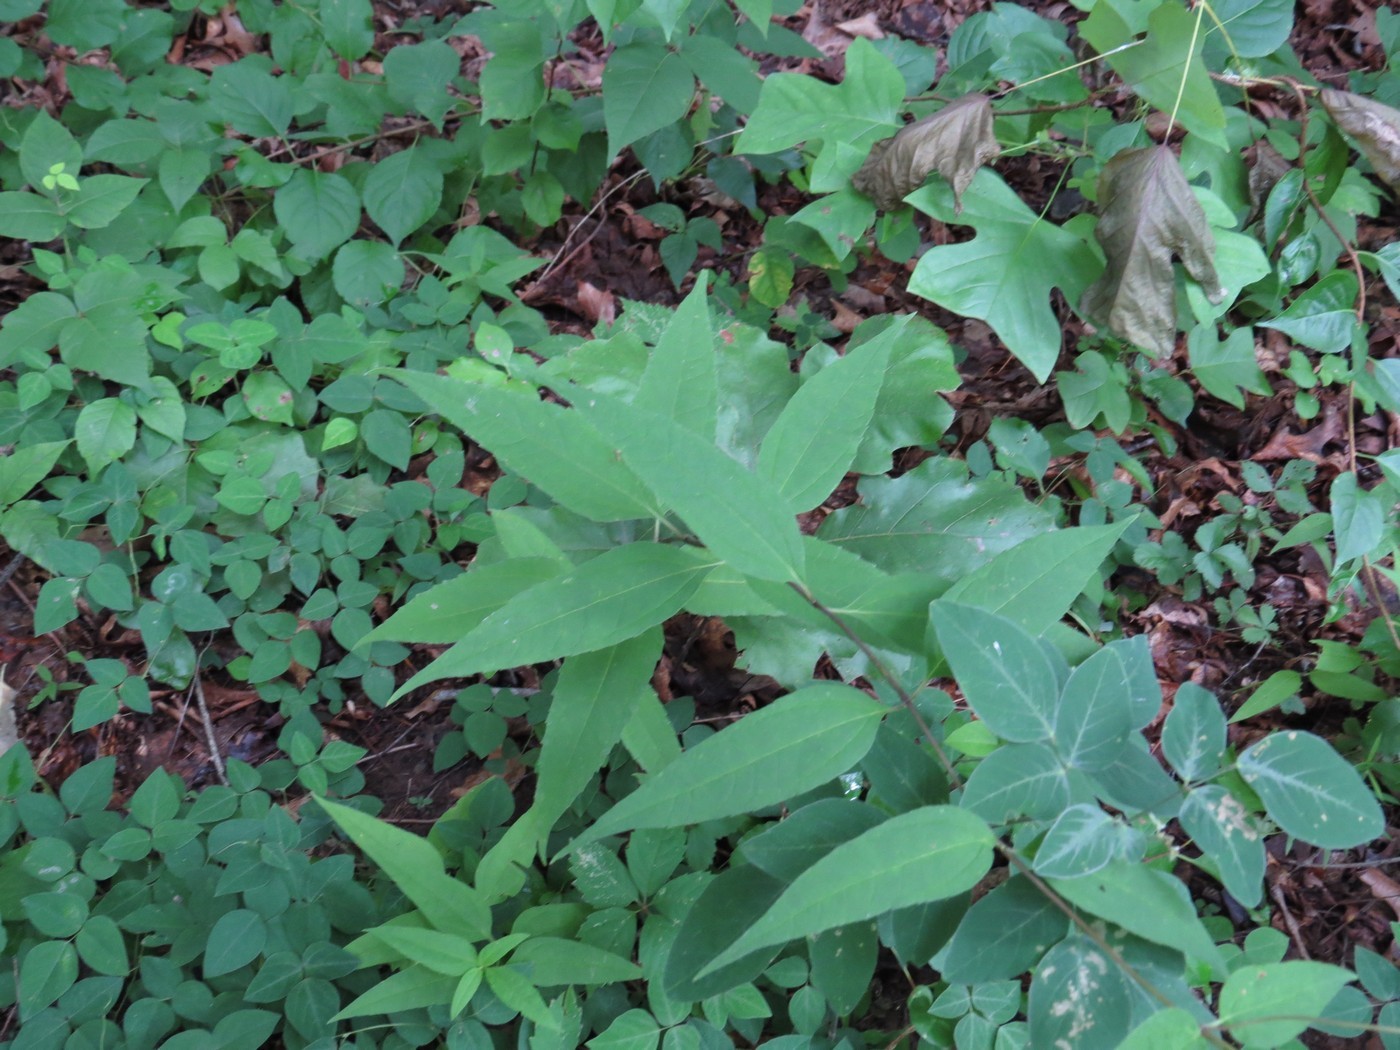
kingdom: Plantae
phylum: Tracheophyta
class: Magnoliopsida
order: Asterales
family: Asteraceae
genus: Helianthus
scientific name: Helianthus microcephalus
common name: Woodland sunflower
